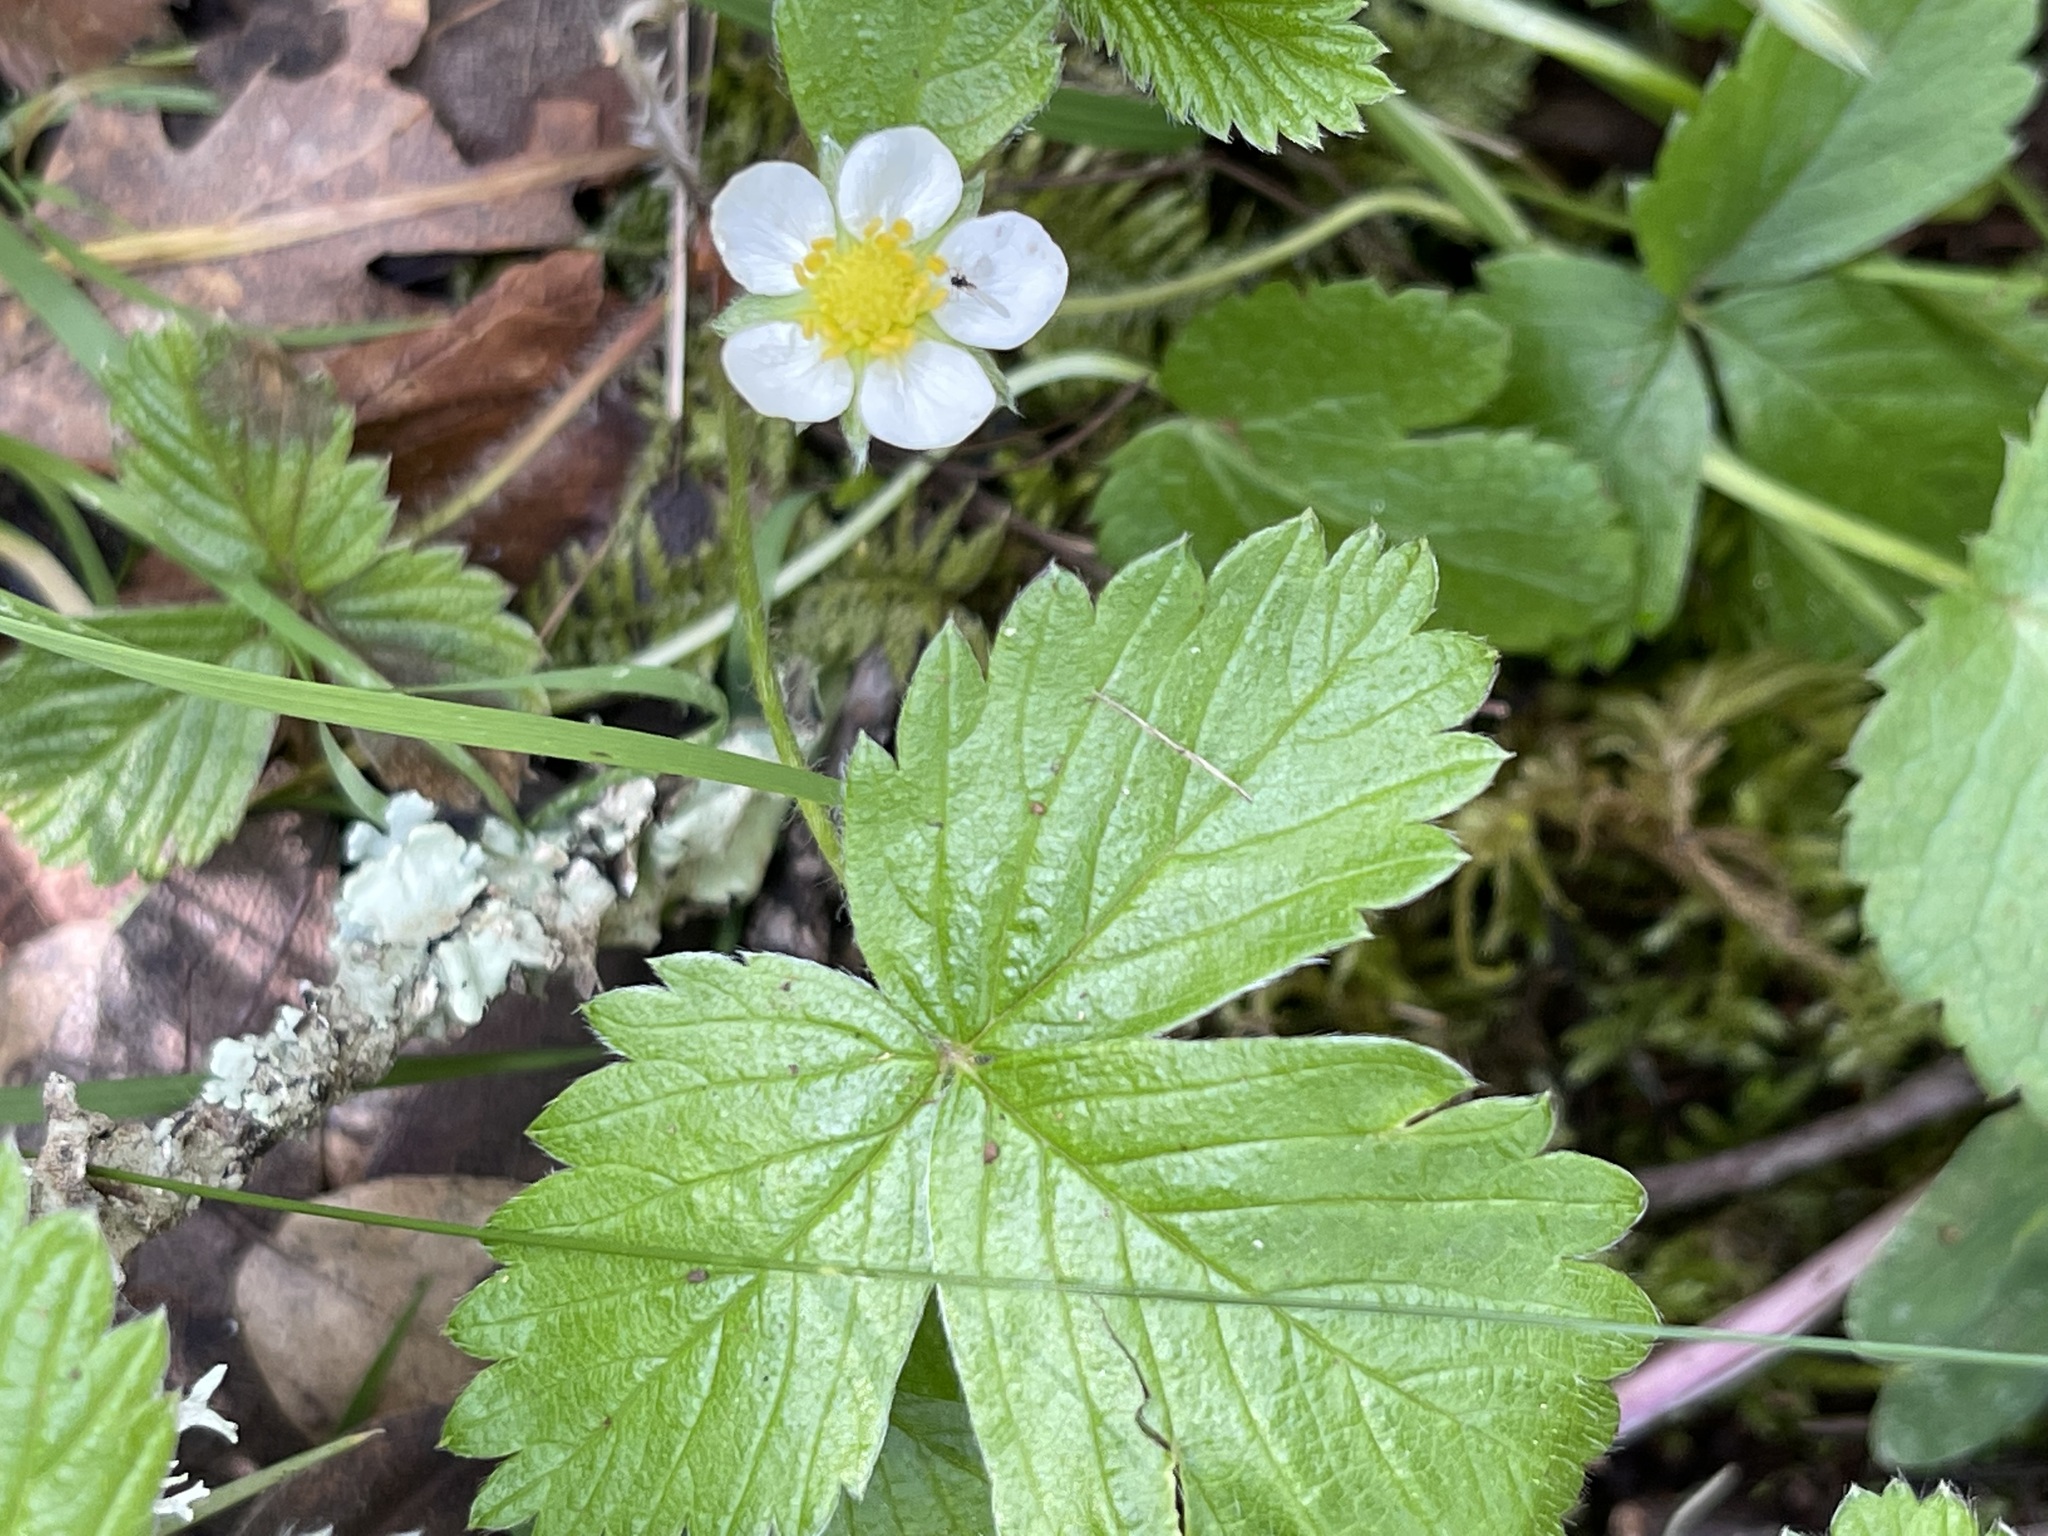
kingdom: Plantae
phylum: Tracheophyta
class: Magnoliopsida
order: Rosales
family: Rosaceae
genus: Fragaria
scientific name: Fragaria vesca
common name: Wild strawberry
